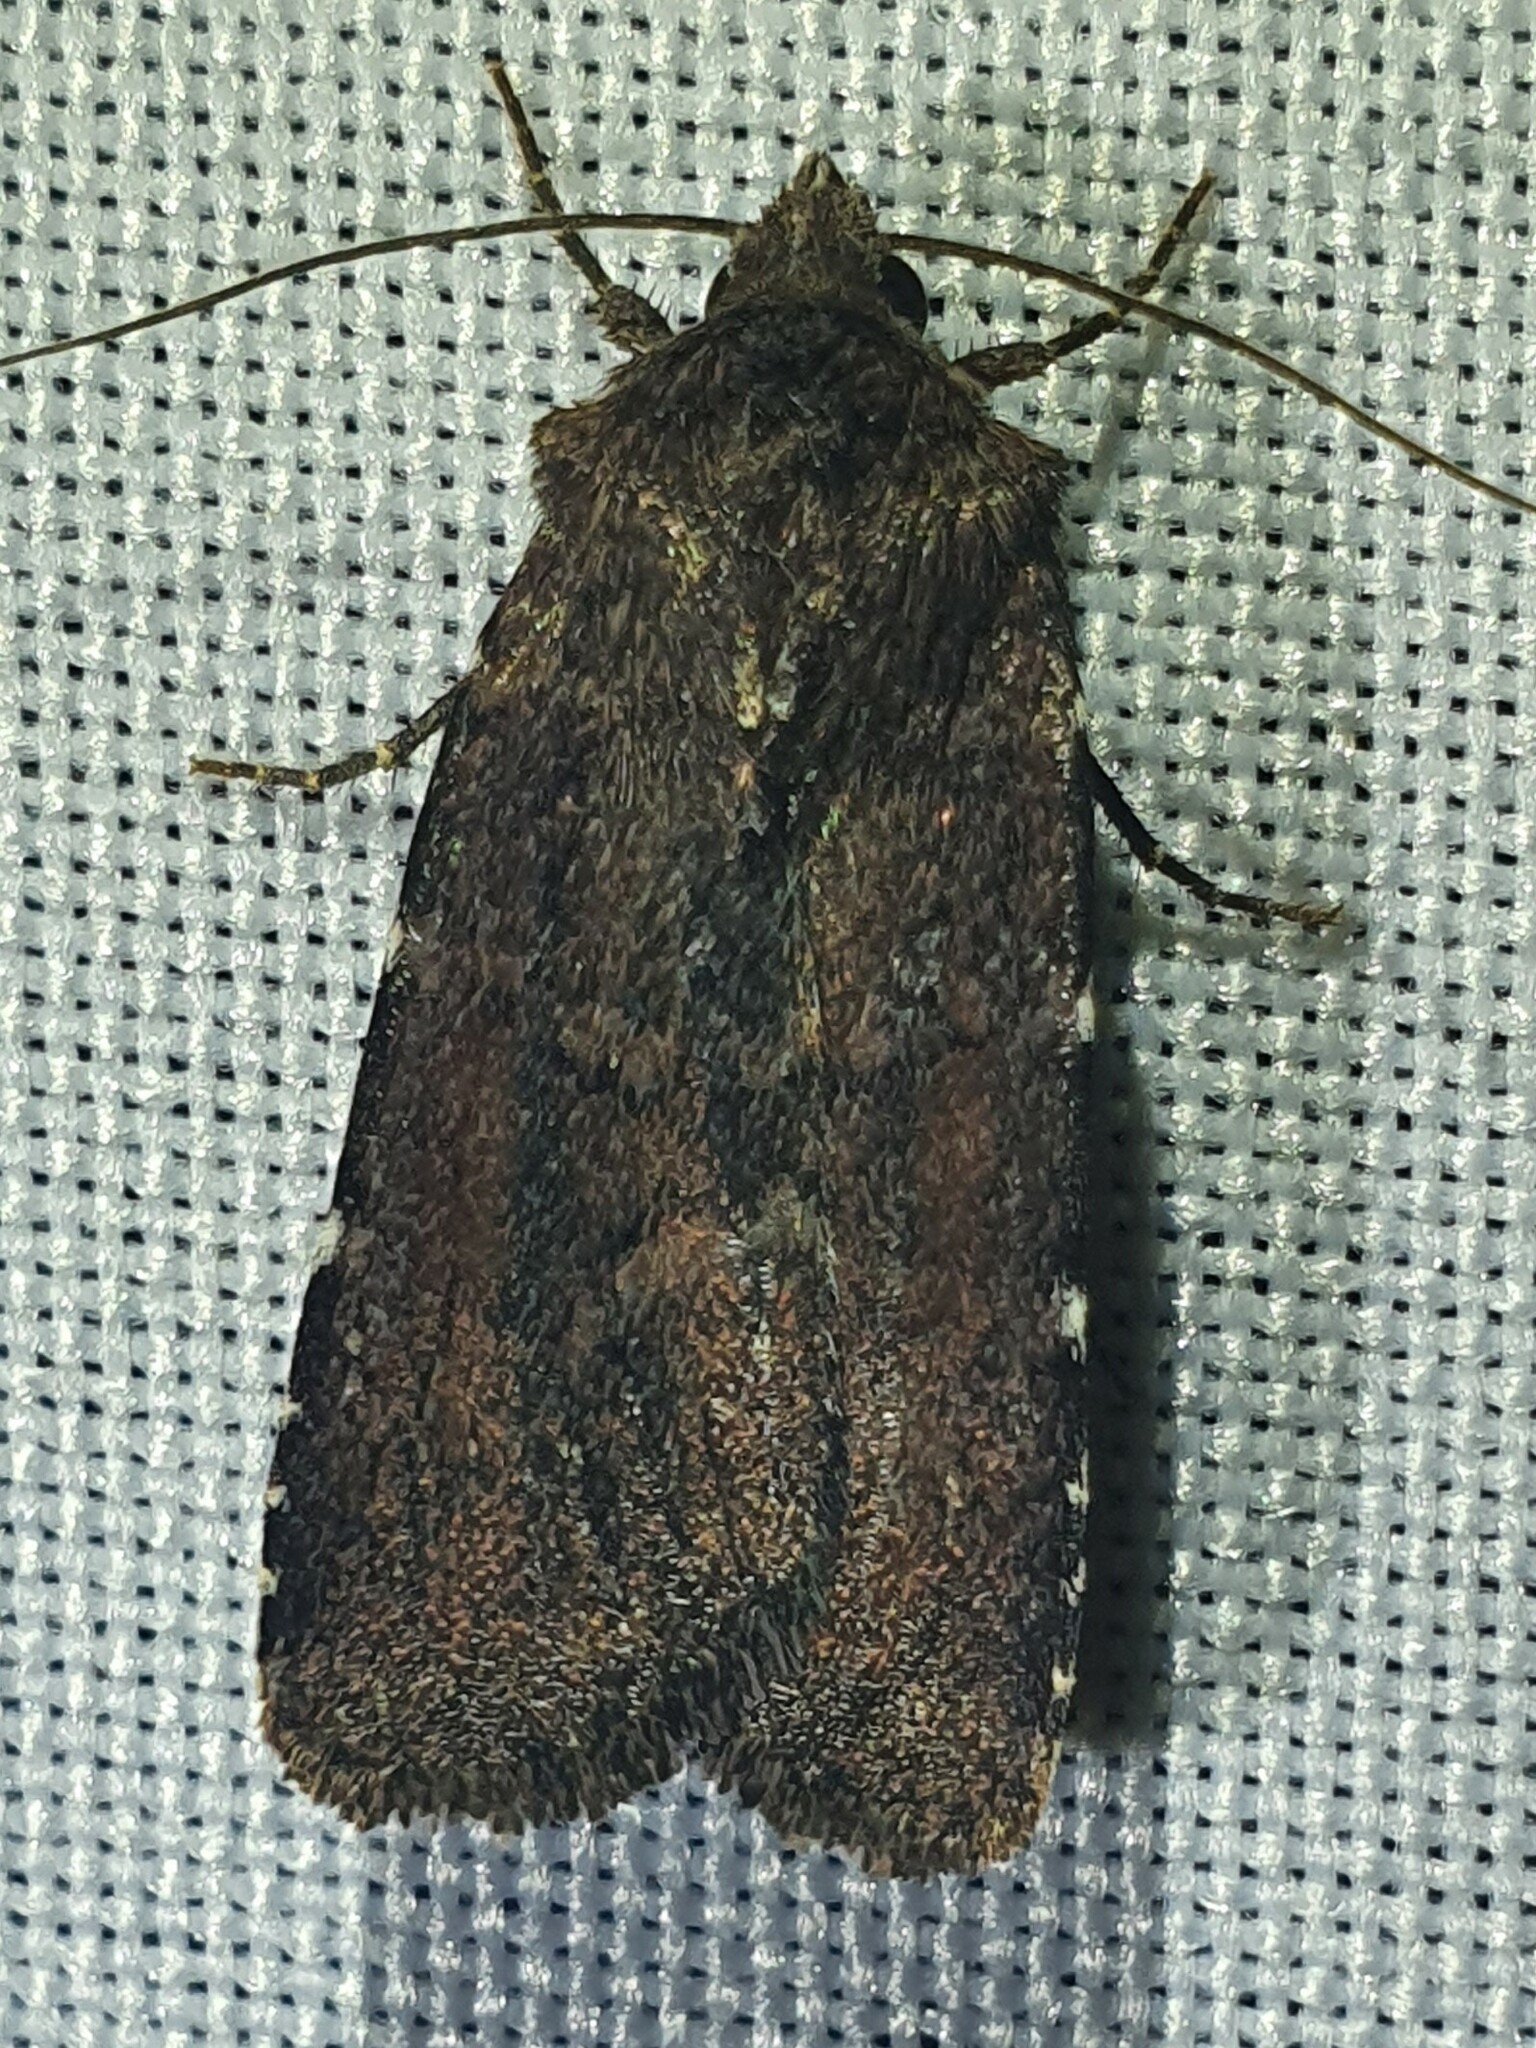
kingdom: Animalia
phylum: Arthropoda
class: Insecta
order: Lepidoptera
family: Noctuidae
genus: Charanyca
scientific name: Charanyca ferruginea
